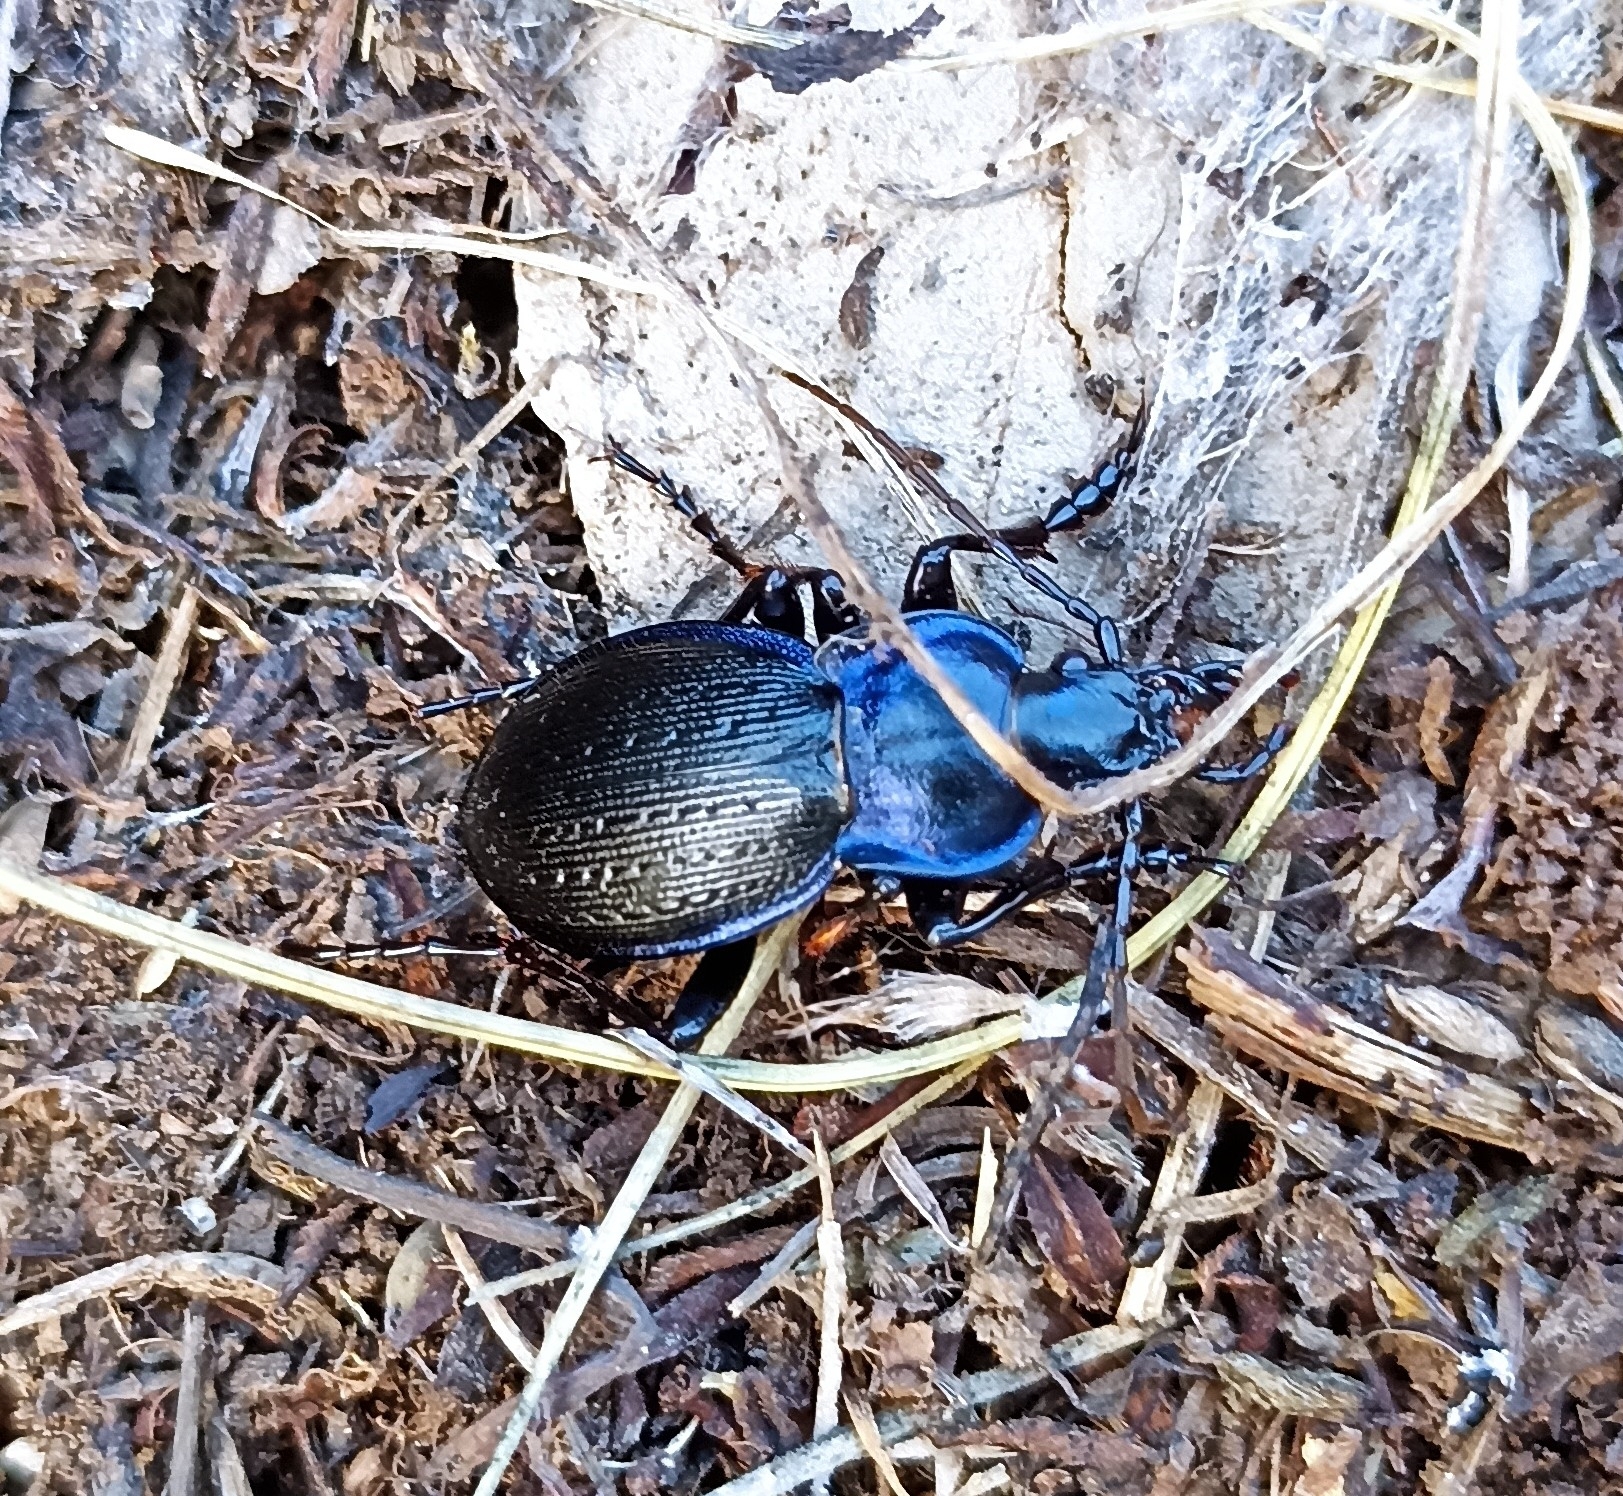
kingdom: Animalia
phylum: Arthropoda
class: Insecta
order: Coleoptera
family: Carabidae
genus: Carabus
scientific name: Carabus problematicus
